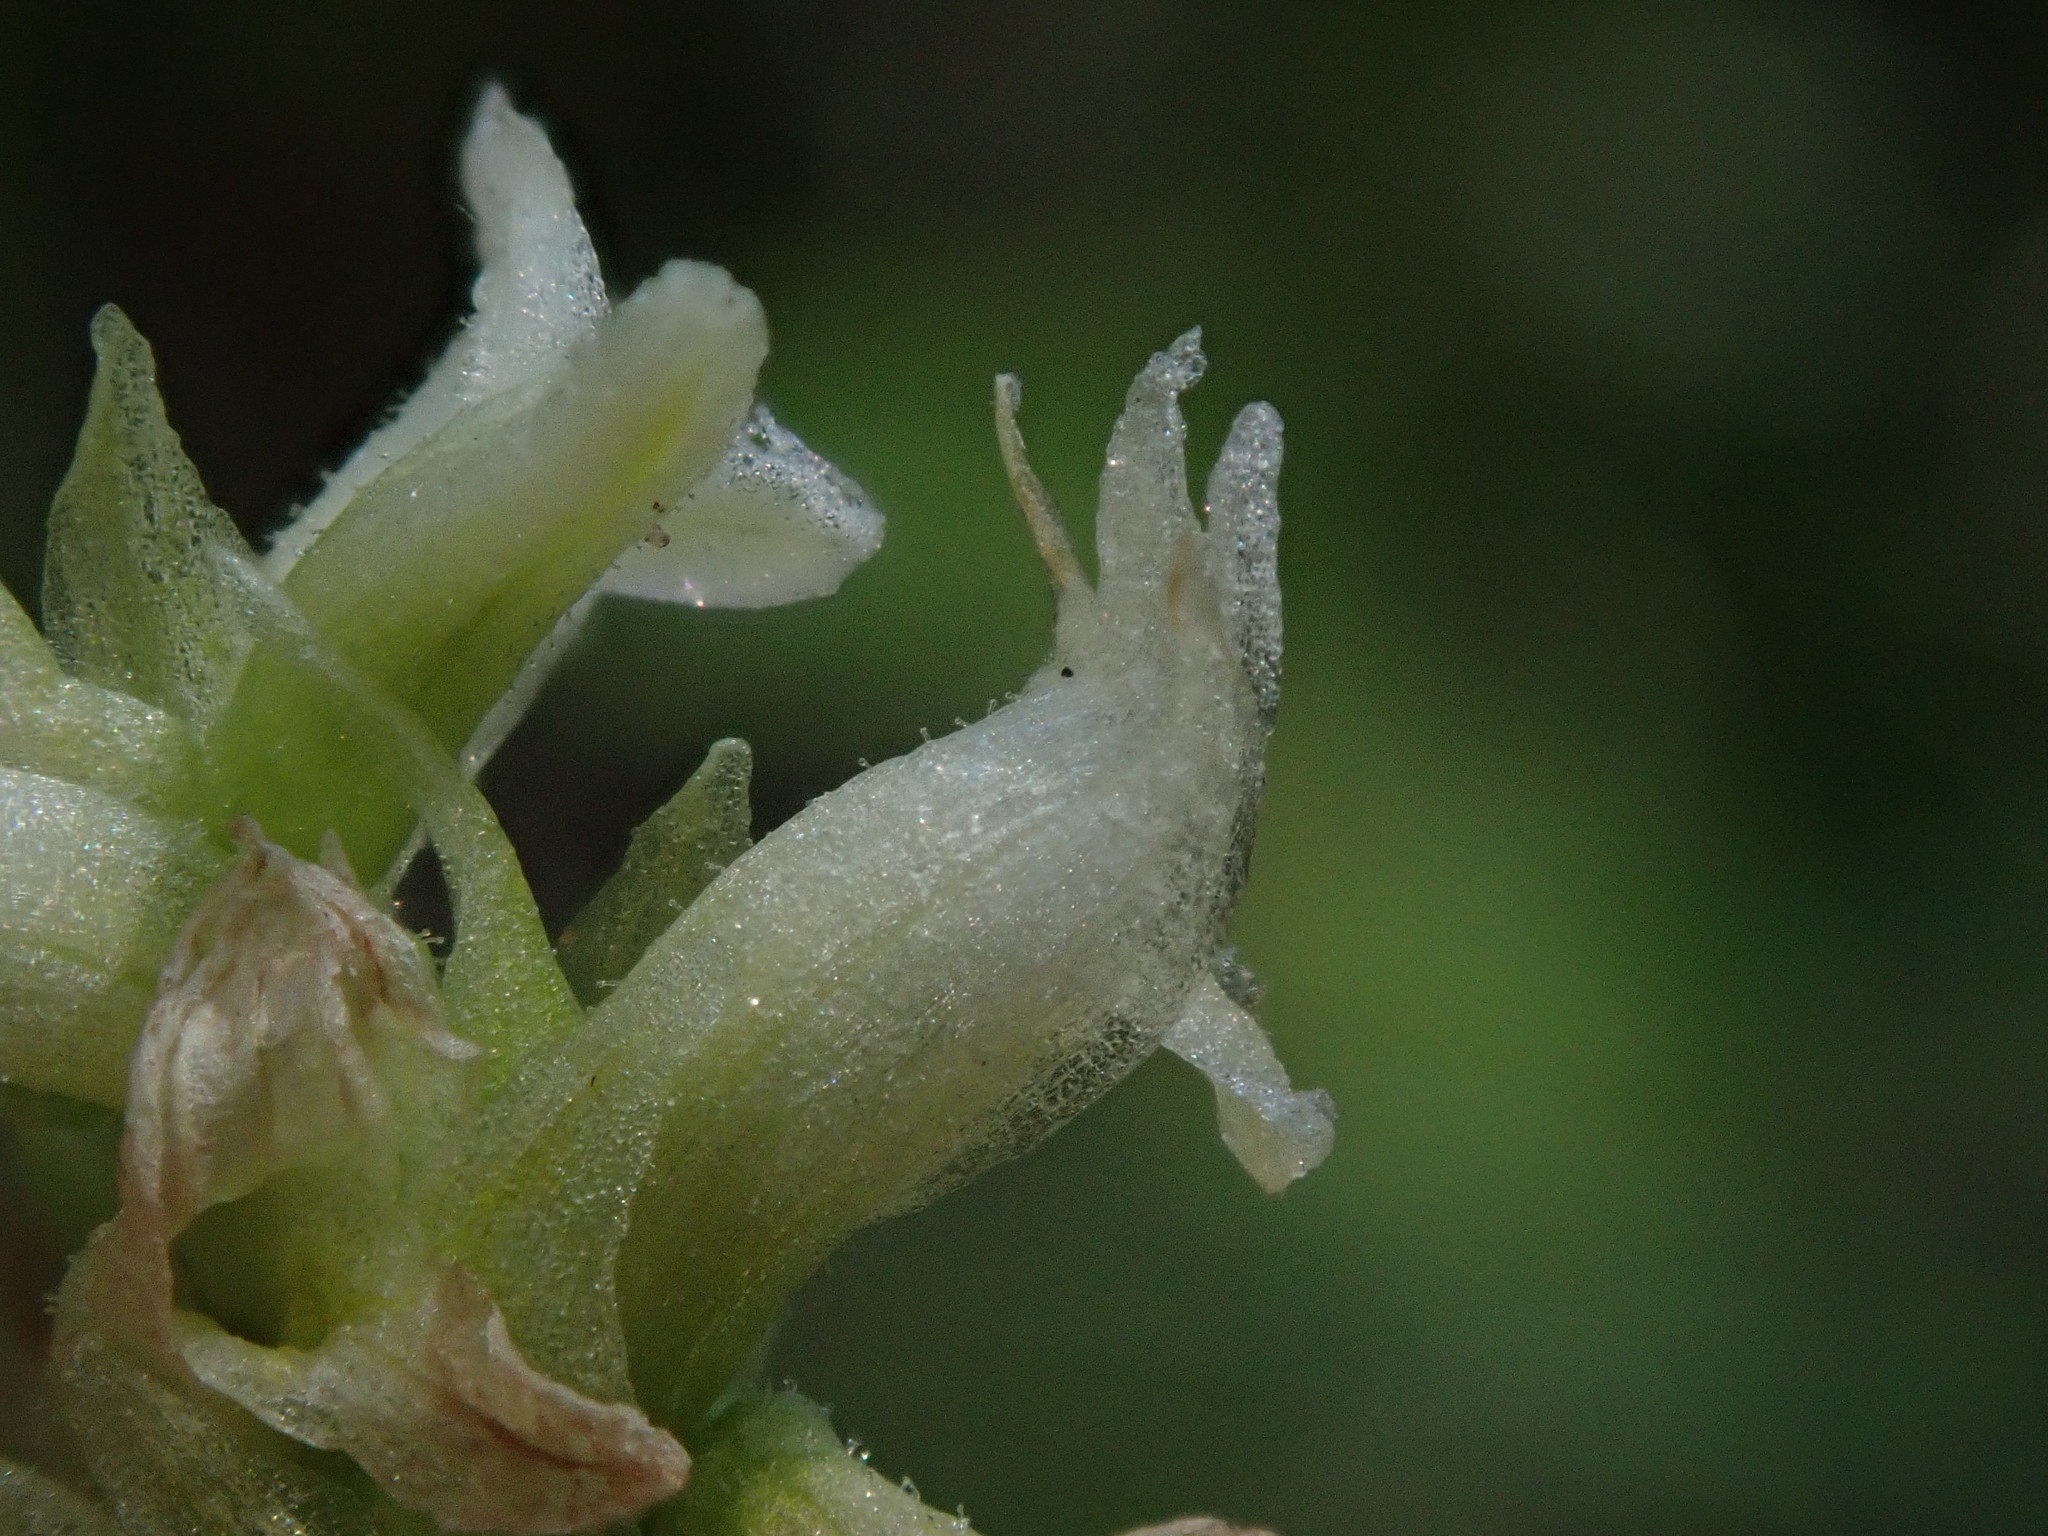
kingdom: Plantae
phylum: Tracheophyta
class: Liliopsida
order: Asparagales
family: Orchidaceae
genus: Spiranthes
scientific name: Spiranthes romanzoffiana
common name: Irish lady's-tresses
